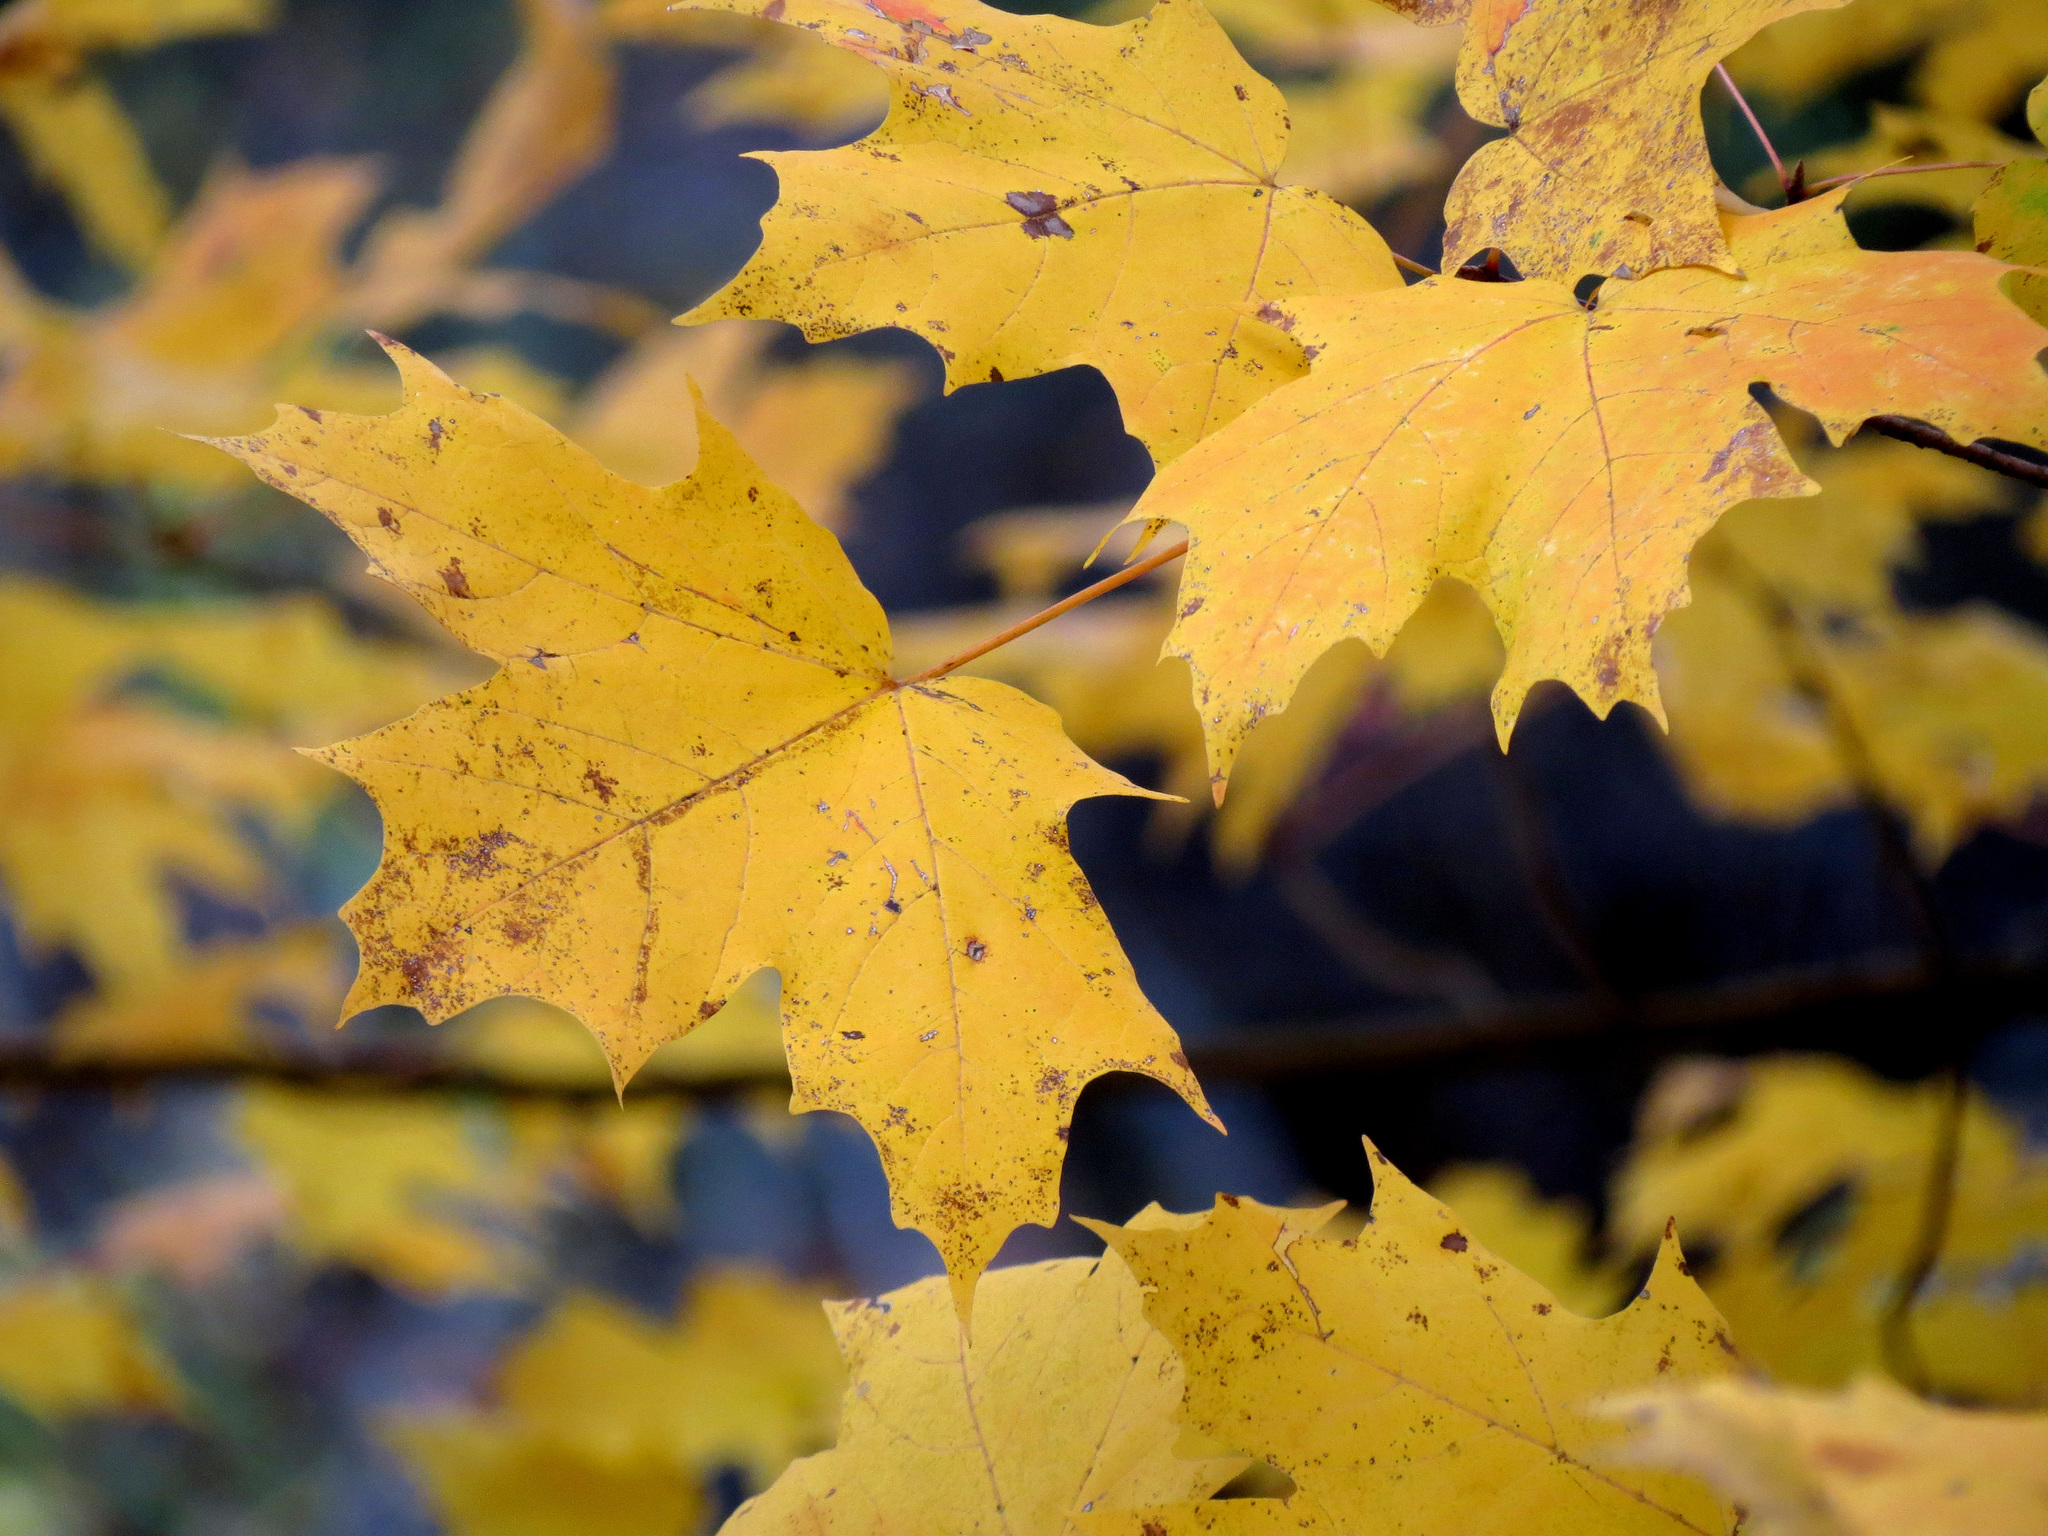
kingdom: Plantae
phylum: Tracheophyta
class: Magnoliopsida
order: Sapindales
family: Sapindaceae
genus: Acer
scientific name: Acer saccharum
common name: Sugar maple
